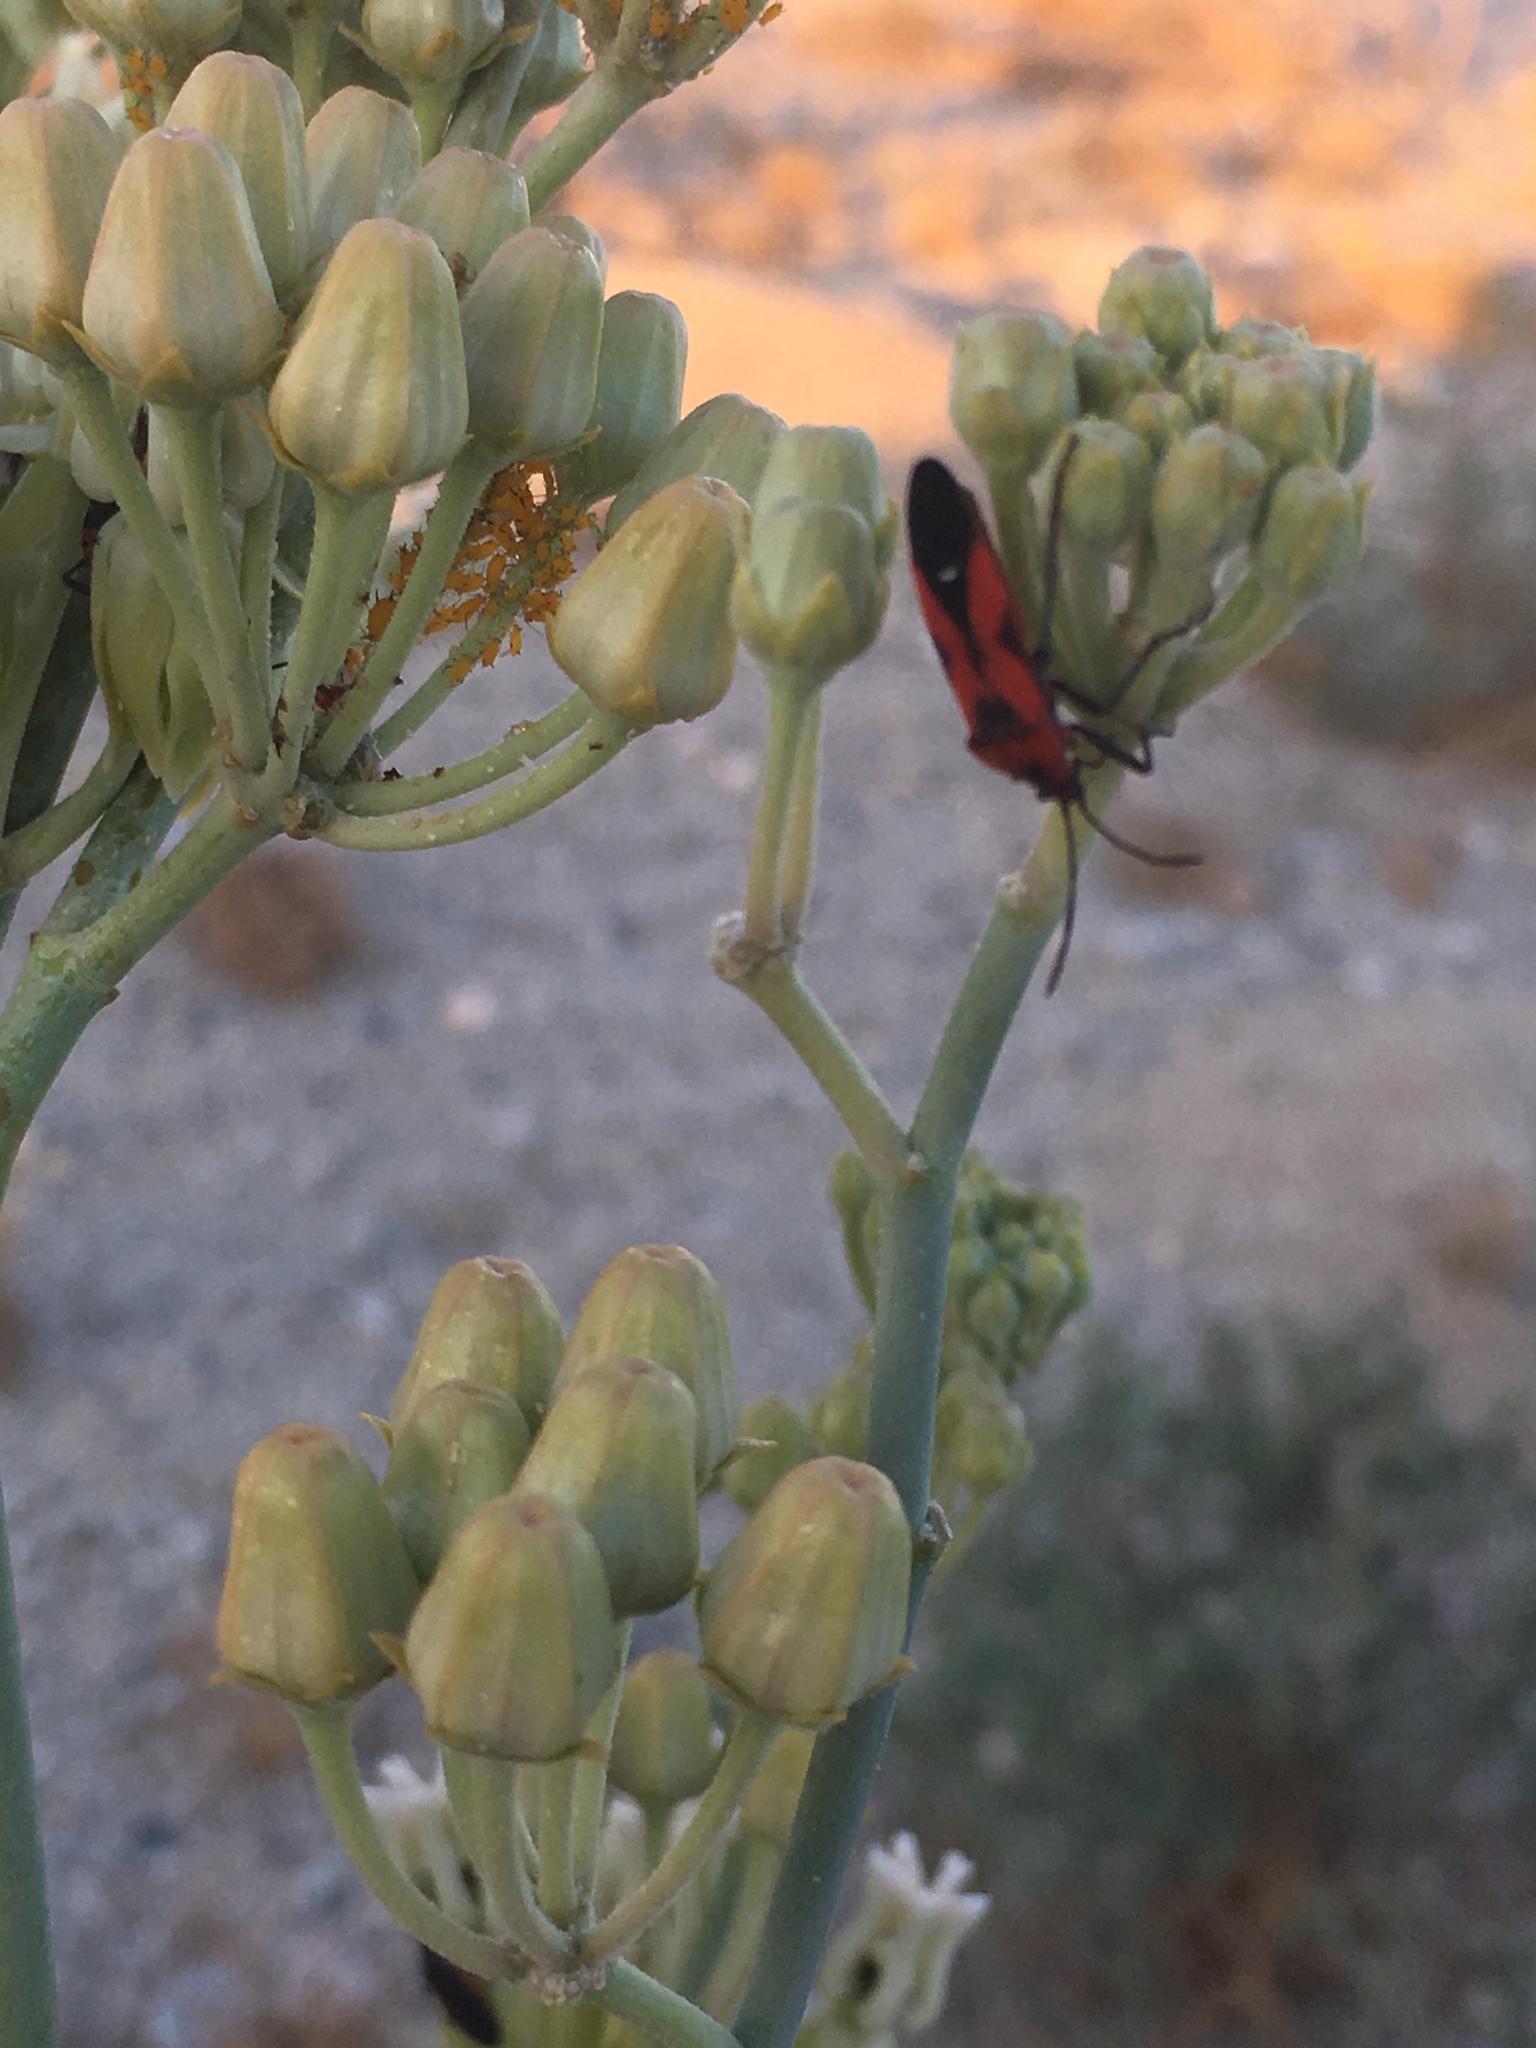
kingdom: Animalia
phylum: Arthropoda
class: Insecta
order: Hemiptera
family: Lygaeidae
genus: Oncopeltus
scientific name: Oncopeltus sanguinolentus
